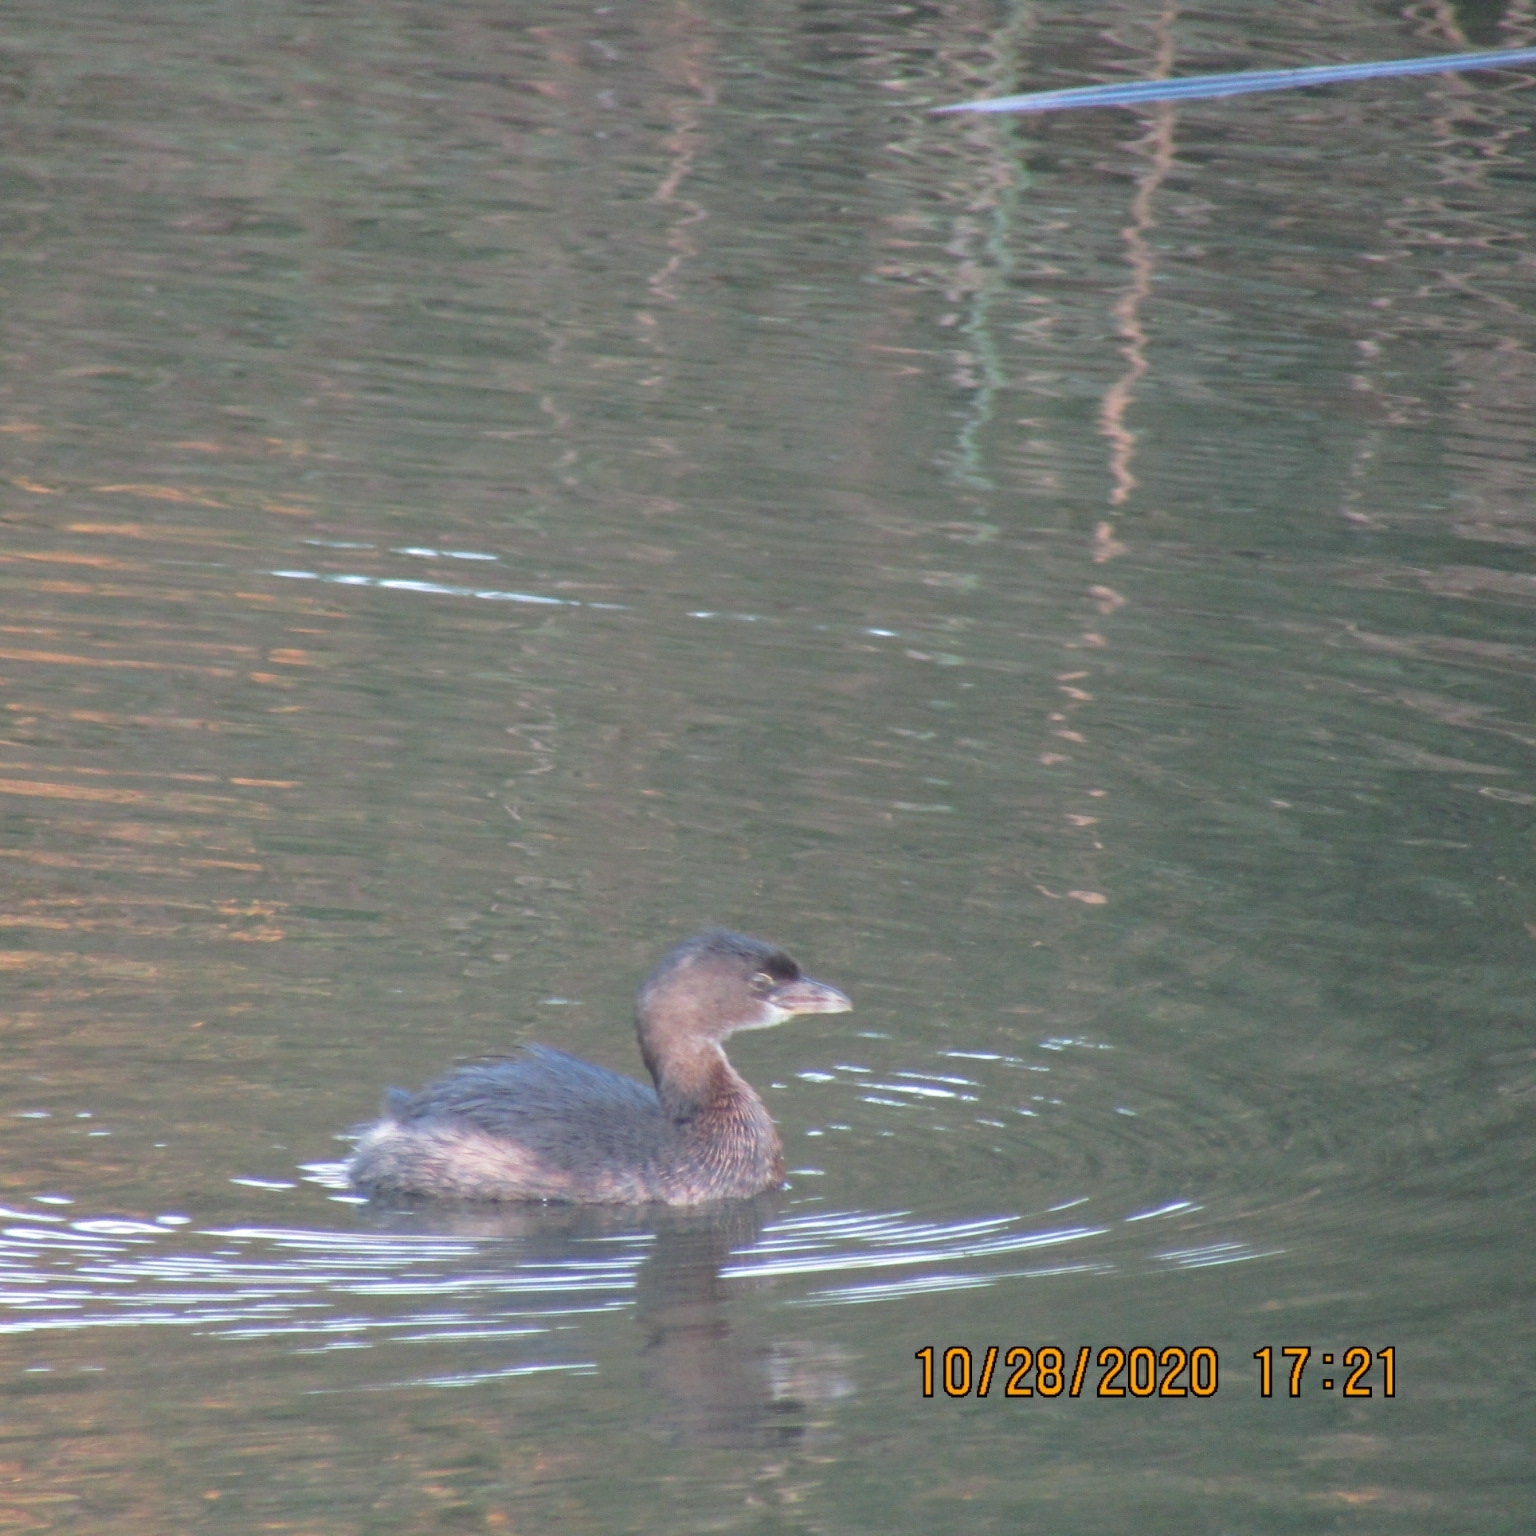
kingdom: Animalia
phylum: Chordata
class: Aves
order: Podicipediformes
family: Podicipedidae
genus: Podilymbus
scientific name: Podilymbus podiceps
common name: Pied-billed grebe
